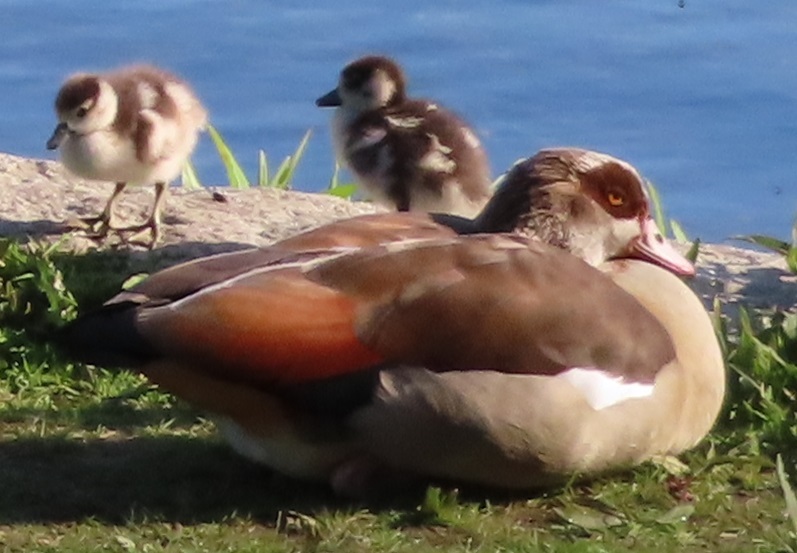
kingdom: Animalia
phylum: Chordata
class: Aves
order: Anseriformes
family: Anatidae
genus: Alopochen
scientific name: Alopochen aegyptiaca
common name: Egyptian goose
